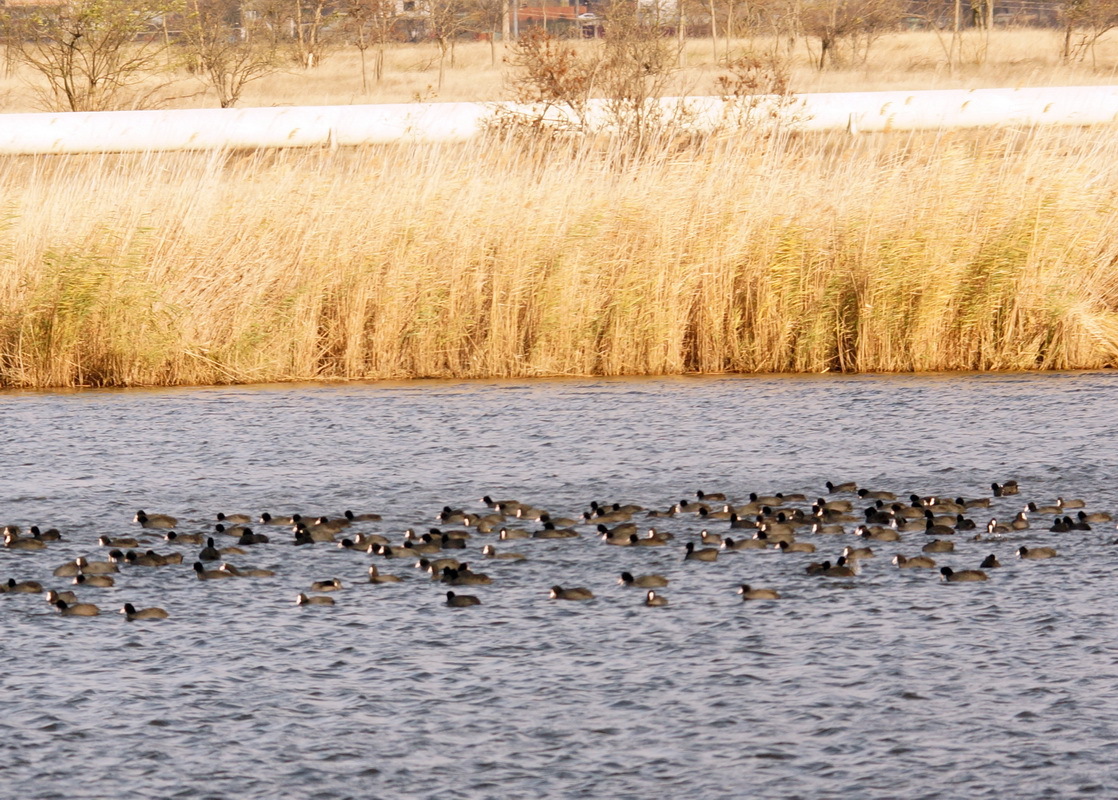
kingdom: Animalia
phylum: Chordata
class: Aves
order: Gruiformes
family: Rallidae
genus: Fulica
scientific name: Fulica atra
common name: Eurasian coot
